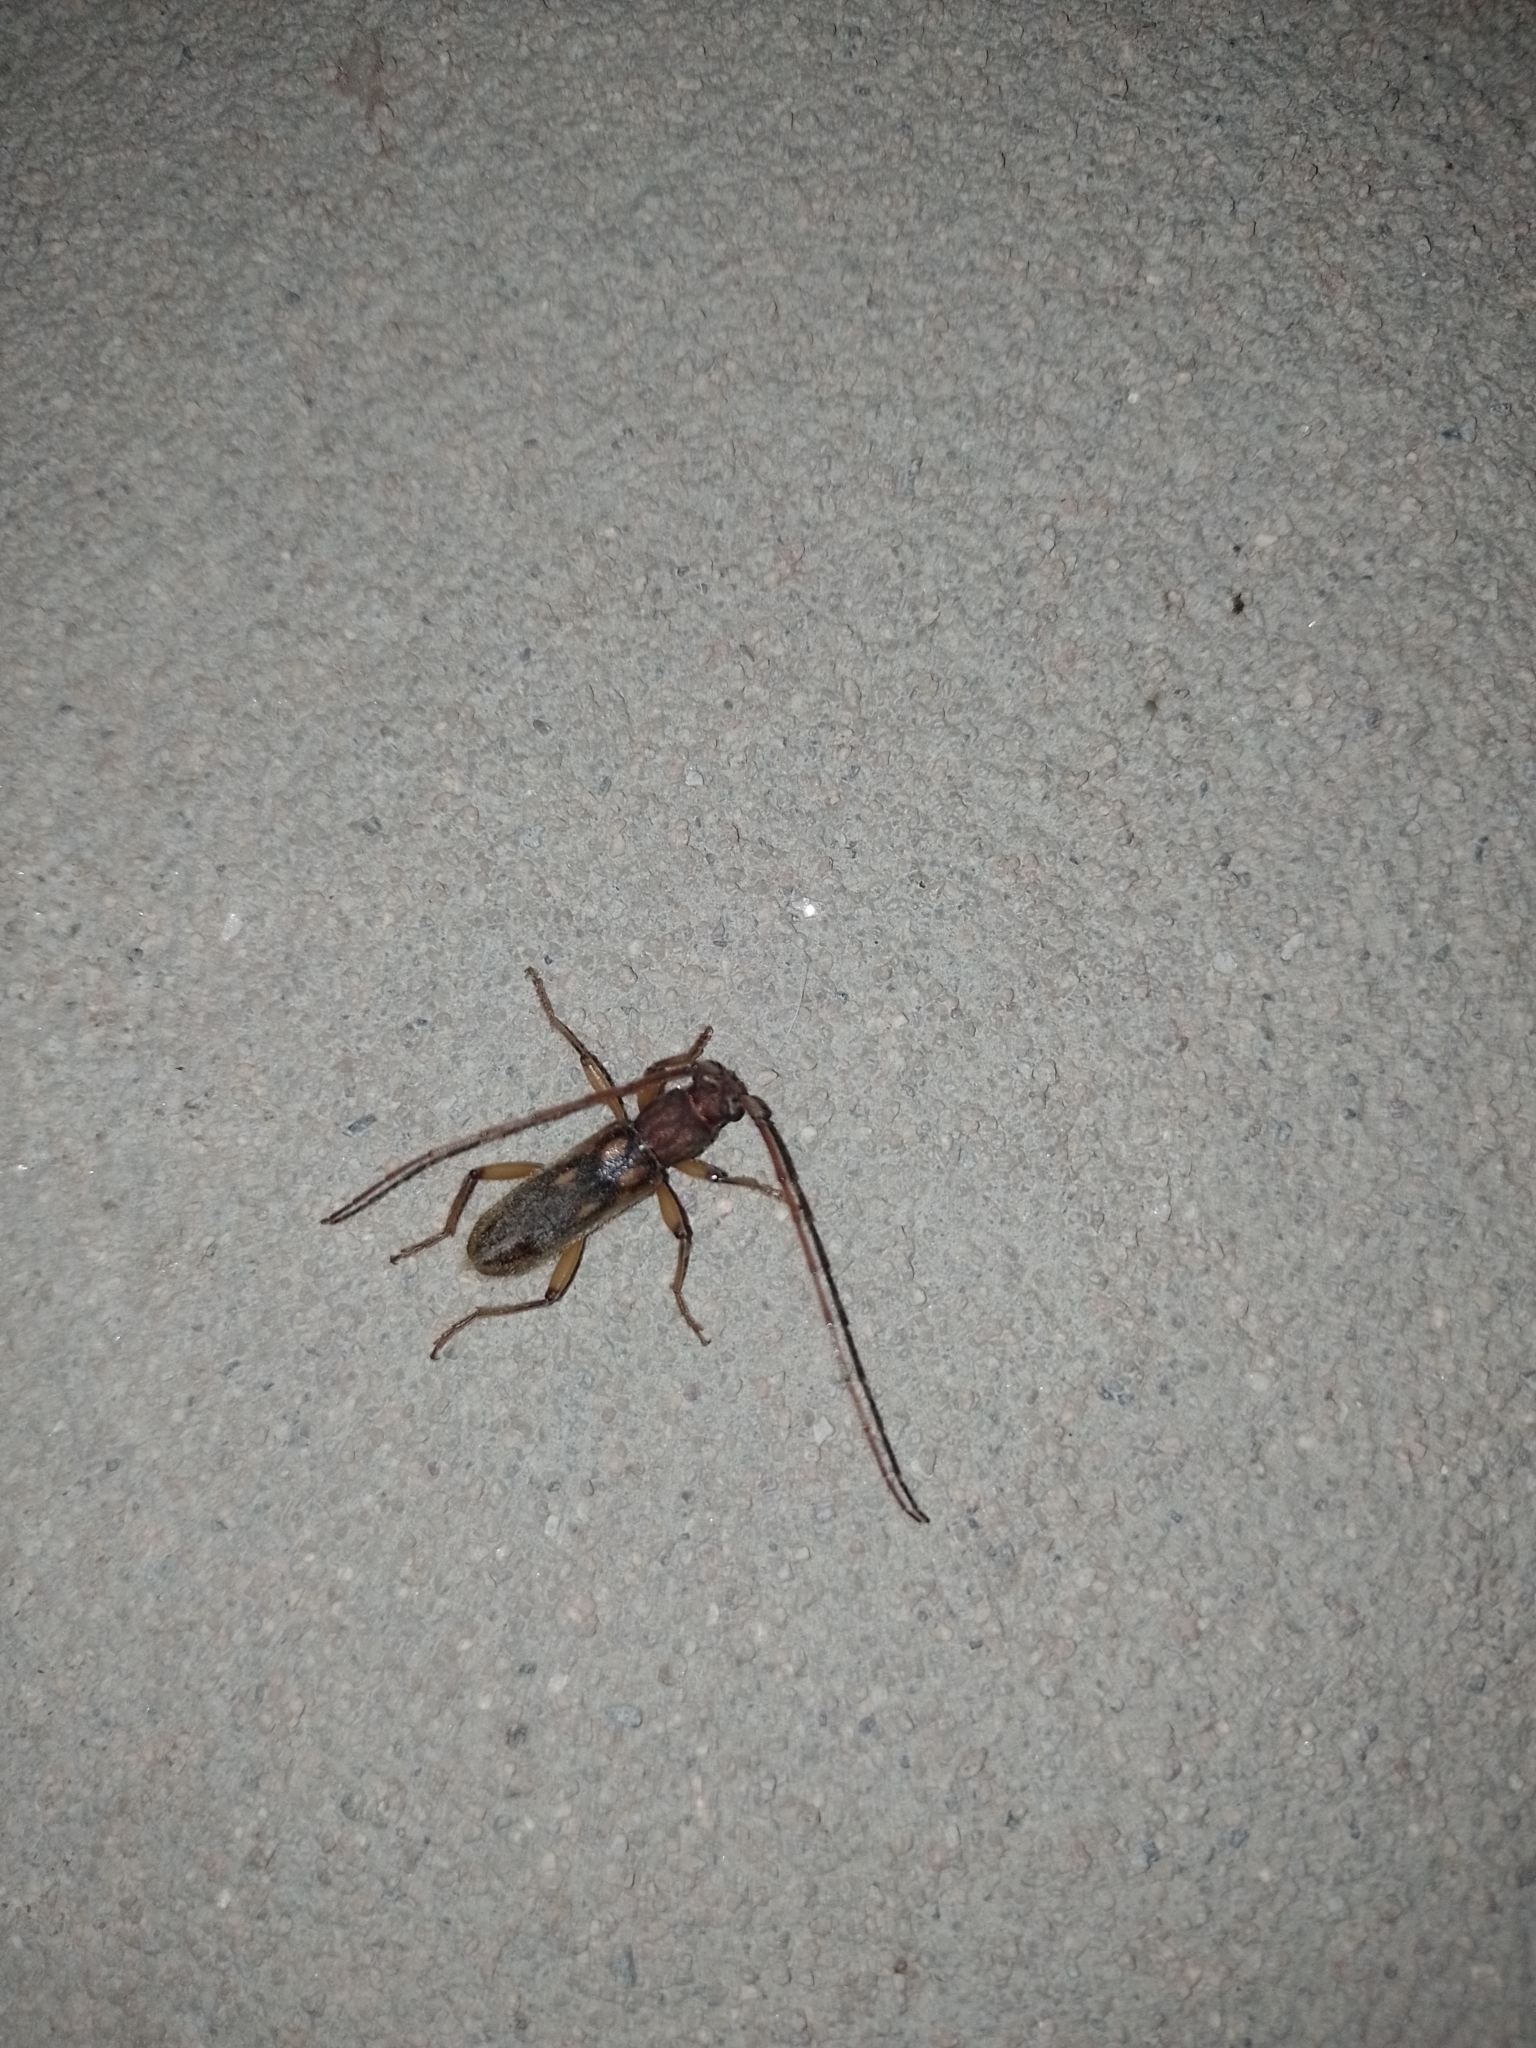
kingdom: Animalia
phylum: Arthropoda
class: Insecta
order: Coleoptera
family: Cerambycidae
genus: Achryson
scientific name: Achryson lutarium
